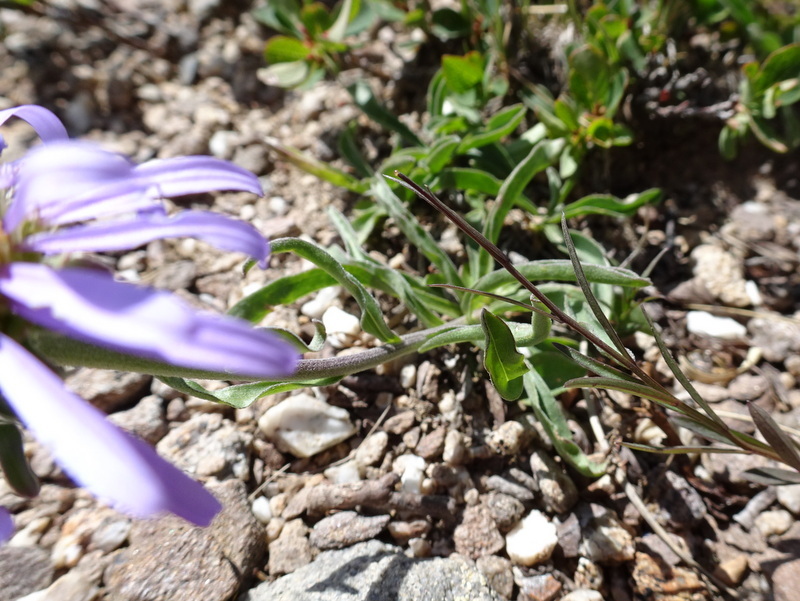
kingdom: Plantae
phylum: Tracheophyta
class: Magnoliopsida
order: Asterales
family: Asteraceae
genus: Aster
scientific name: Aster alpinus
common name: Alpine aster
